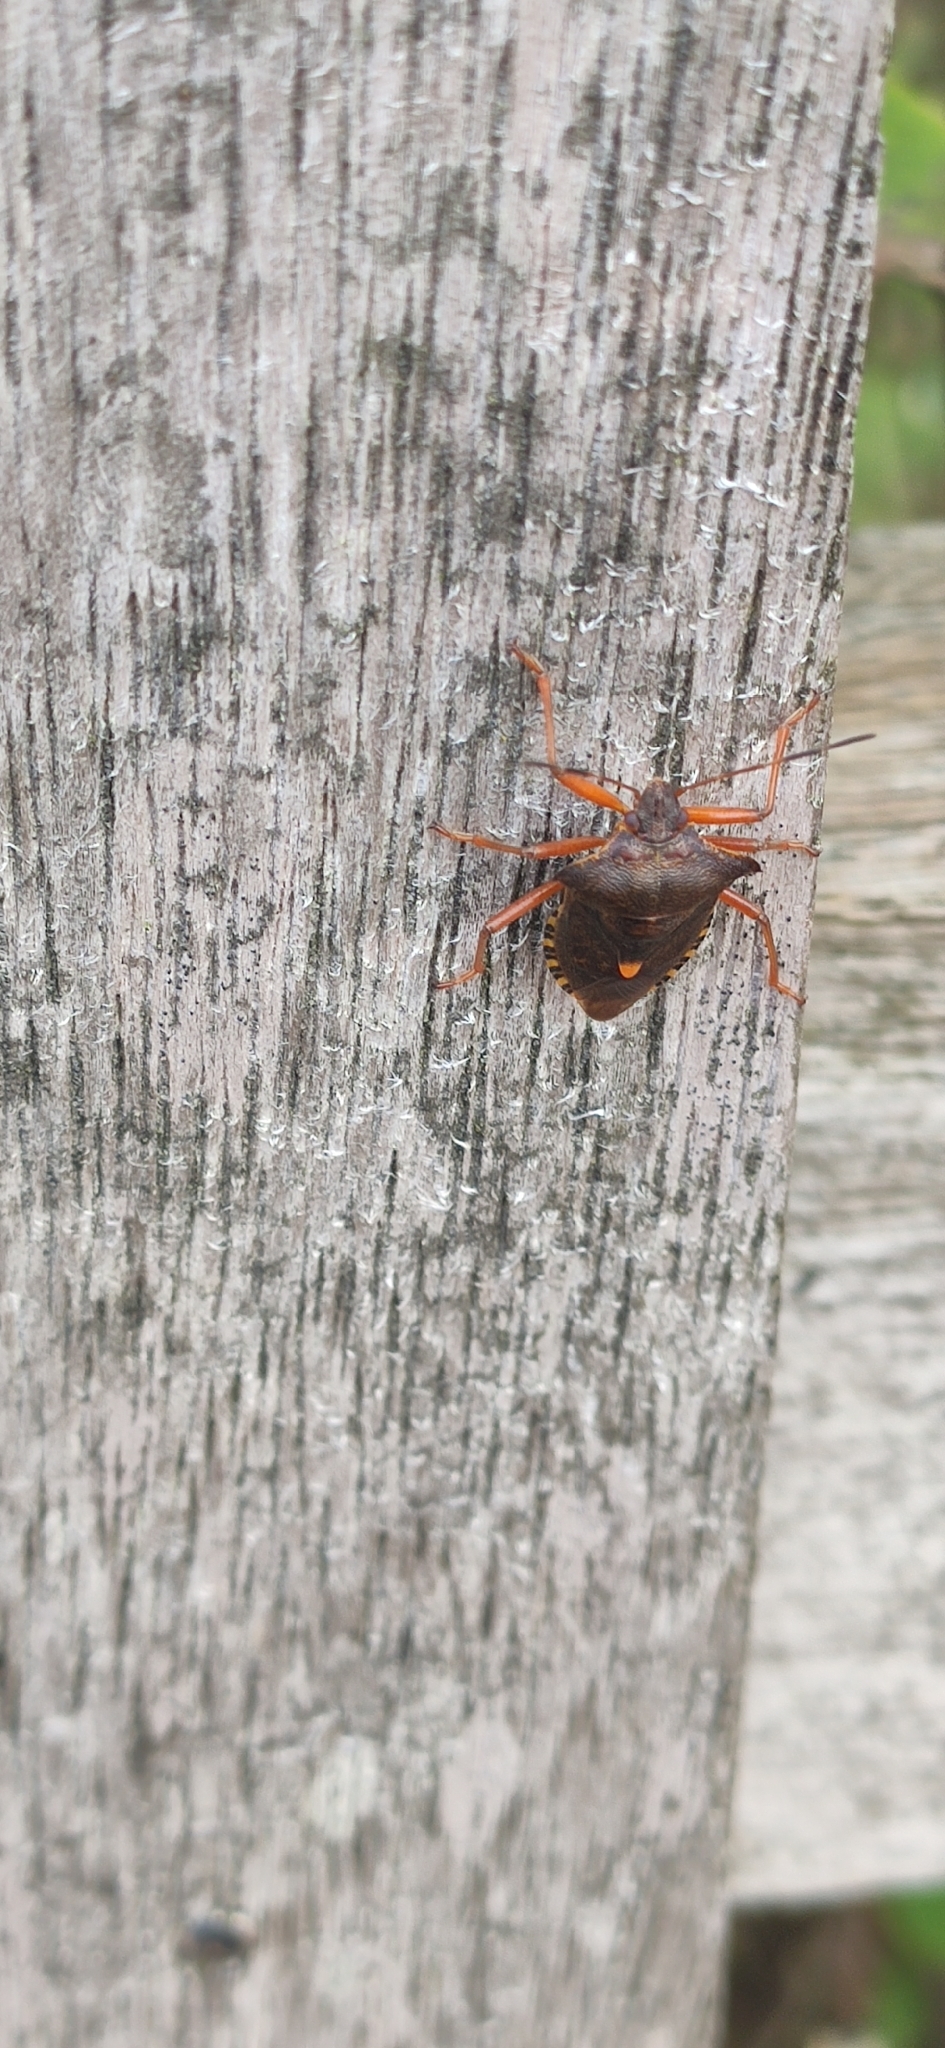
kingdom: Animalia
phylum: Arthropoda
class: Insecta
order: Hemiptera
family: Pentatomidae
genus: Pentatoma
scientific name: Pentatoma rufipes
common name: Forest bug
